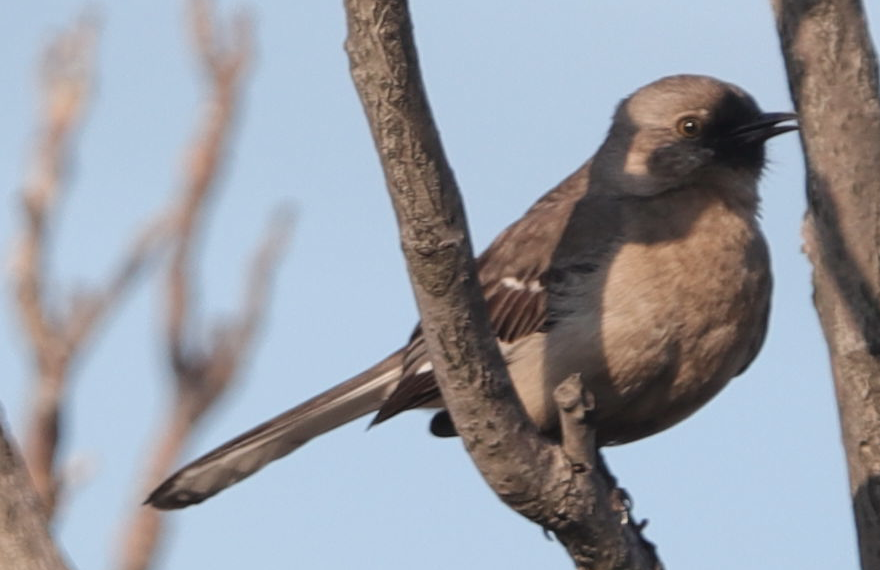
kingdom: Animalia
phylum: Chordata
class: Aves
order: Passeriformes
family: Mimidae
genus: Mimus
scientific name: Mimus polyglottos
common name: Northern mockingbird
